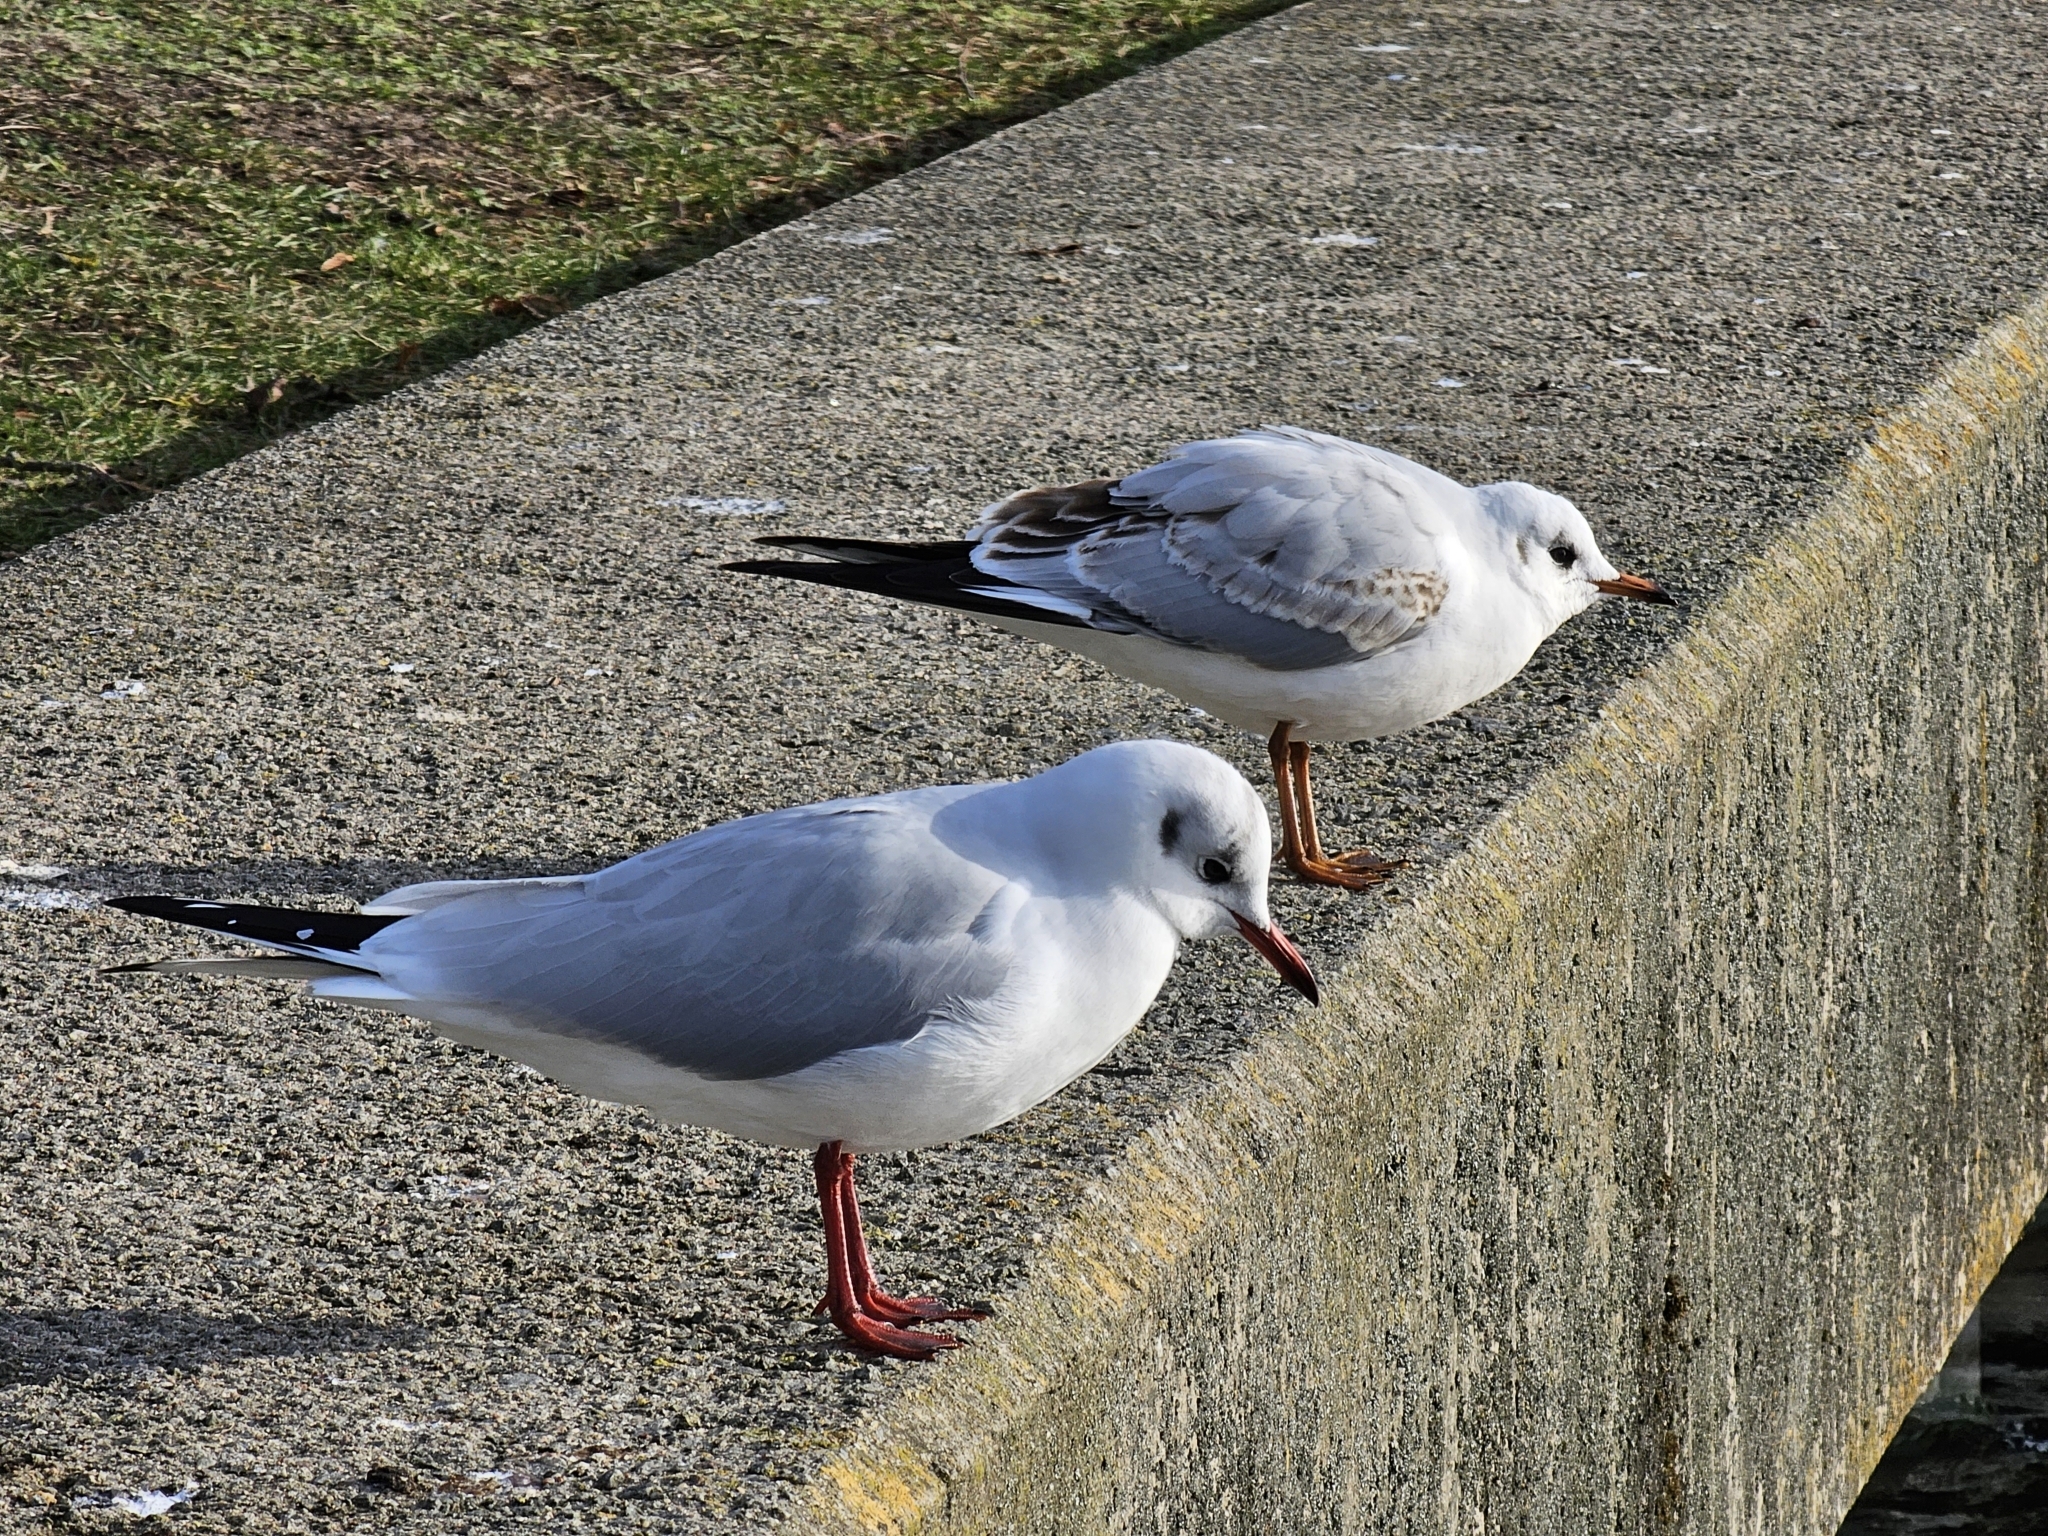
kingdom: Animalia
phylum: Chordata
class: Aves
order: Charadriiformes
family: Laridae
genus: Chroicocephalus
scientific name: Chroicocephalus ridibundus
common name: Black-headed gull
